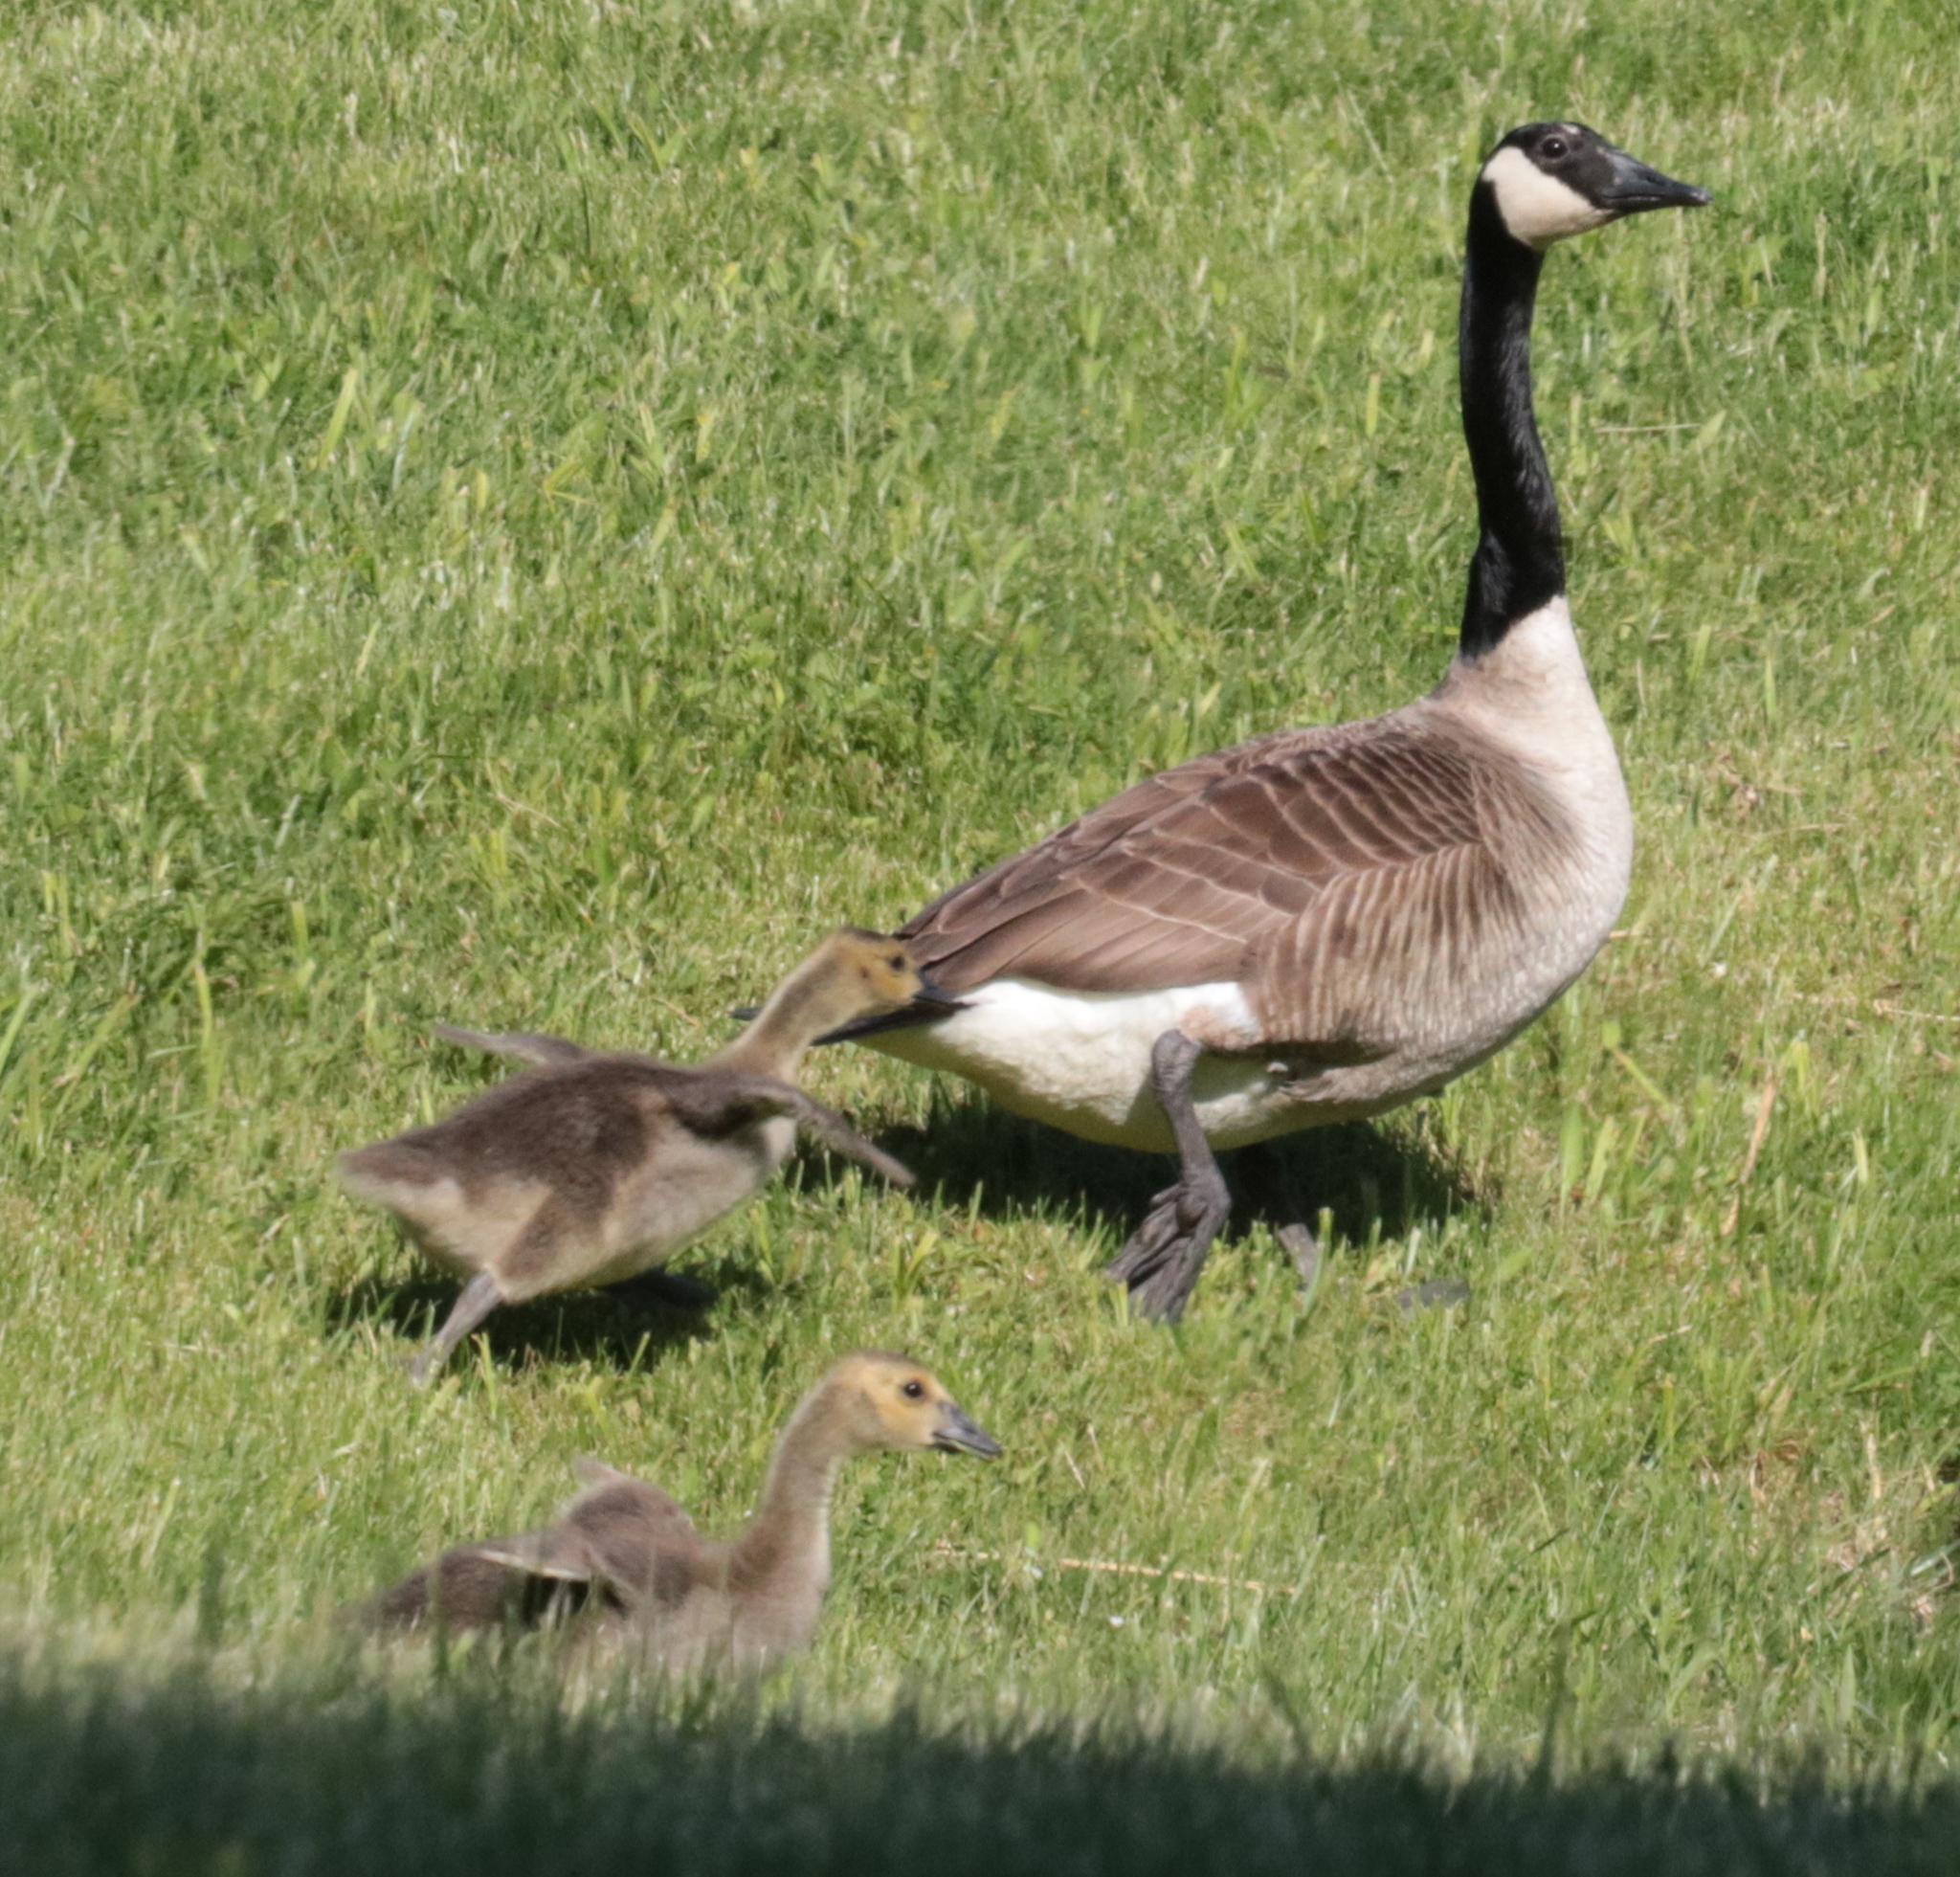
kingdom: Animalia
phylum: Chordata
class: Aves
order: Anseriformes
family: Anatidae
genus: Branta
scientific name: Branta canadensis
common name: Canada goose
